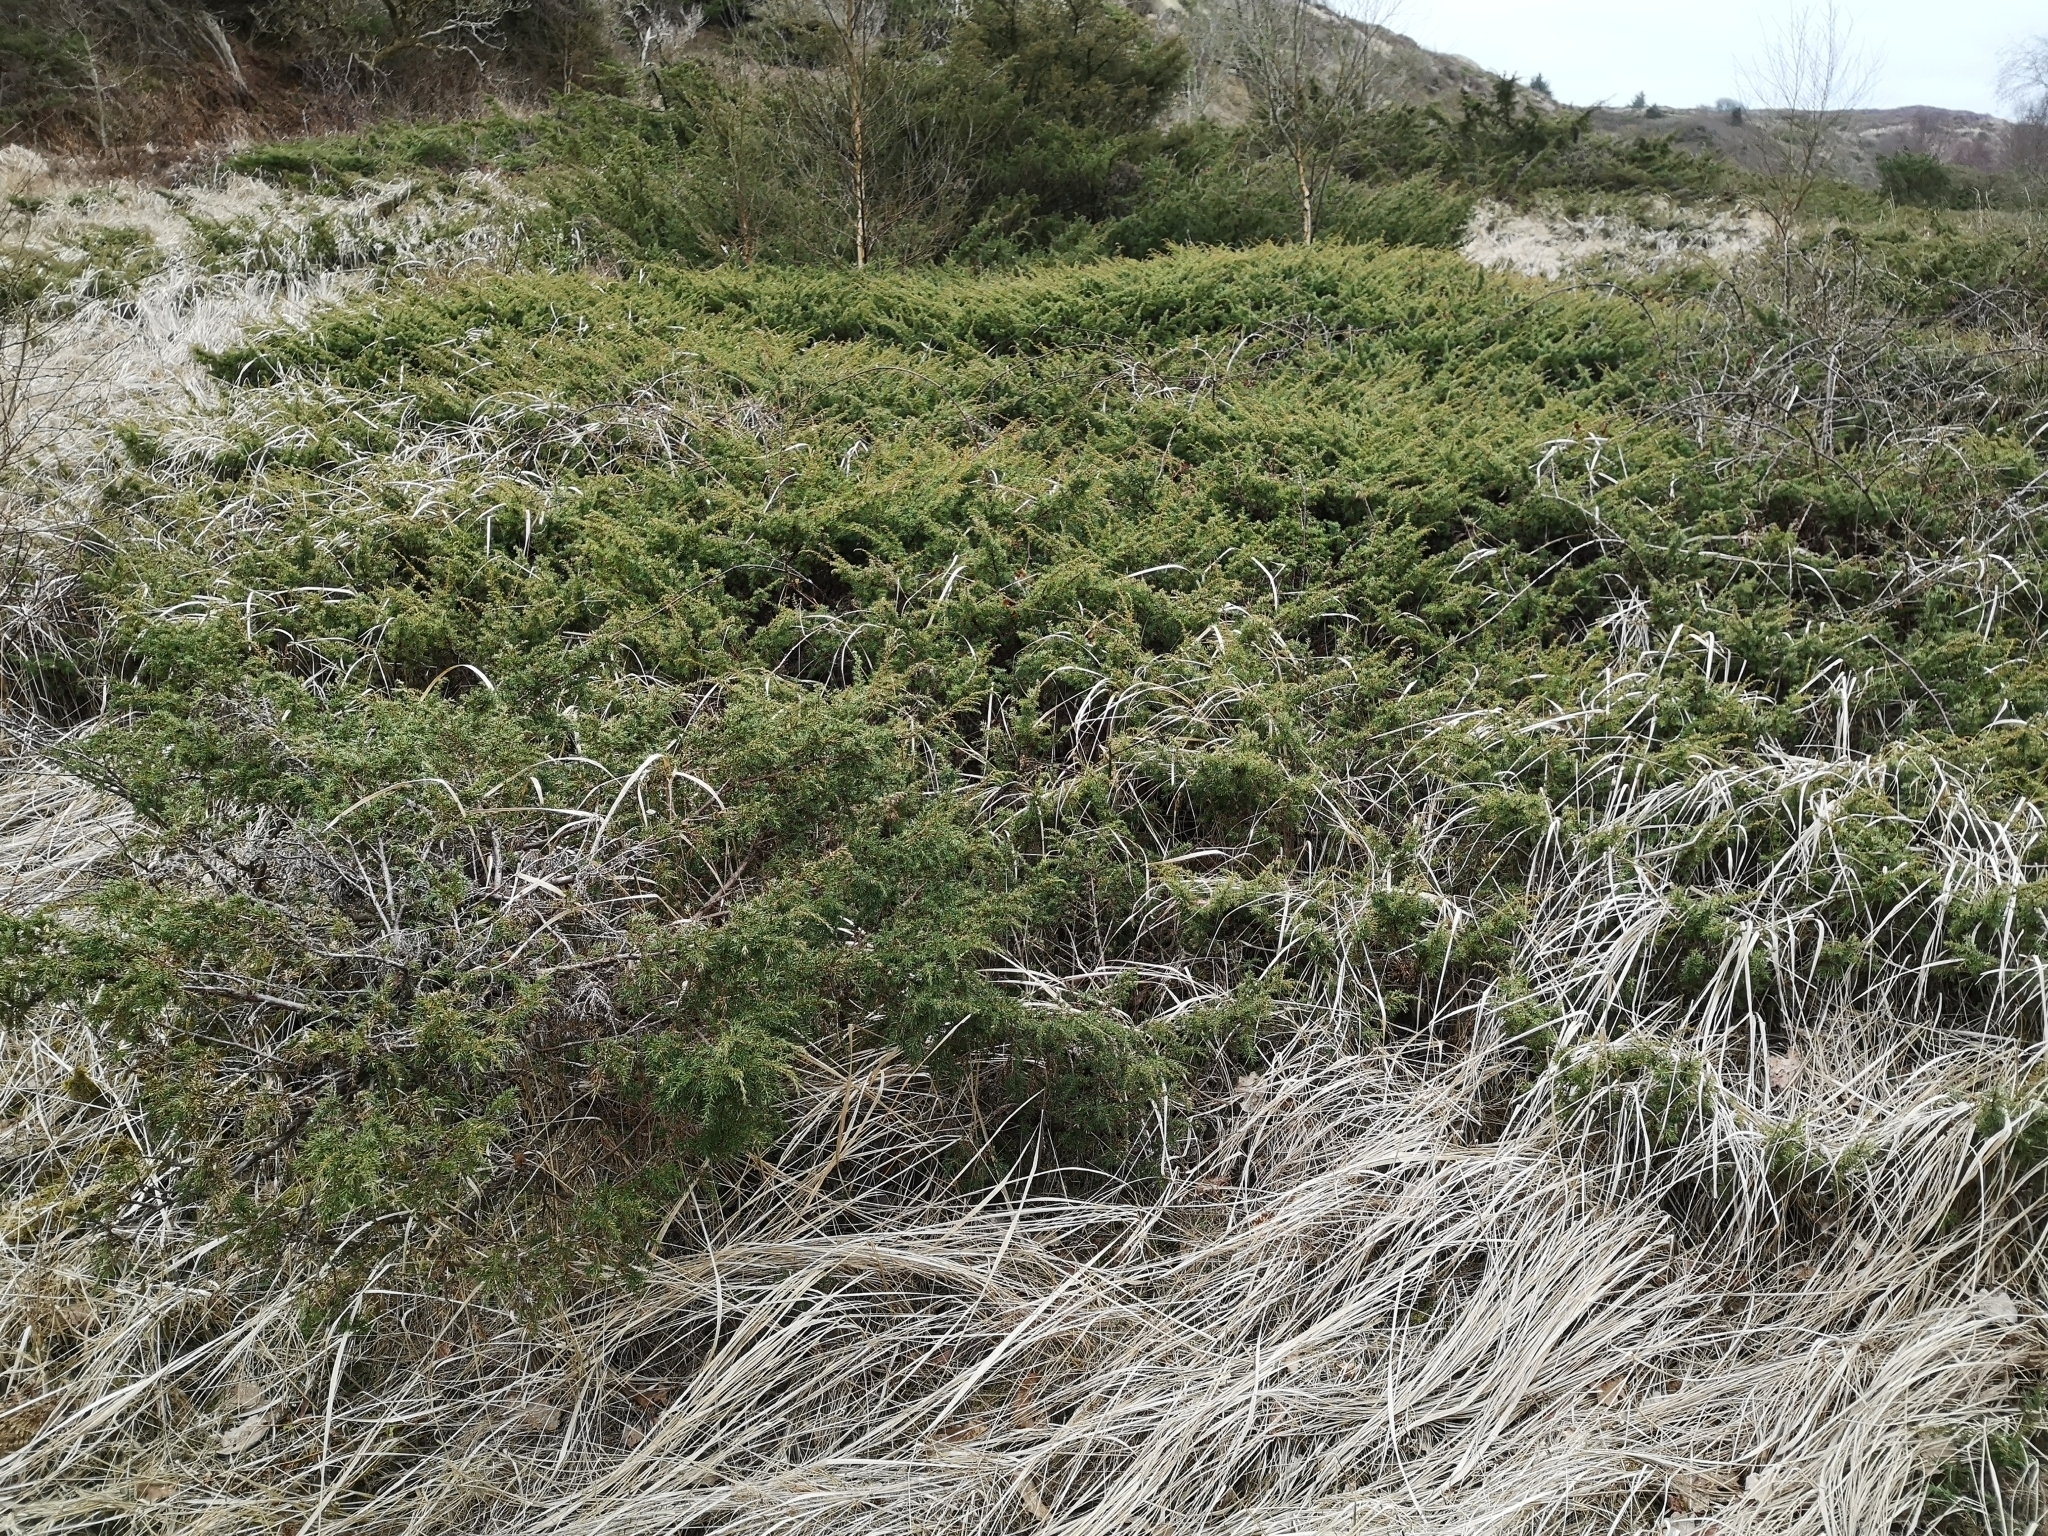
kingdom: Plantae
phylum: Tracheophyta
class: Pinopsida
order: Pinales
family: Cupressaceae
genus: Juniperus
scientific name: Juniperus communis
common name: Common juniper
